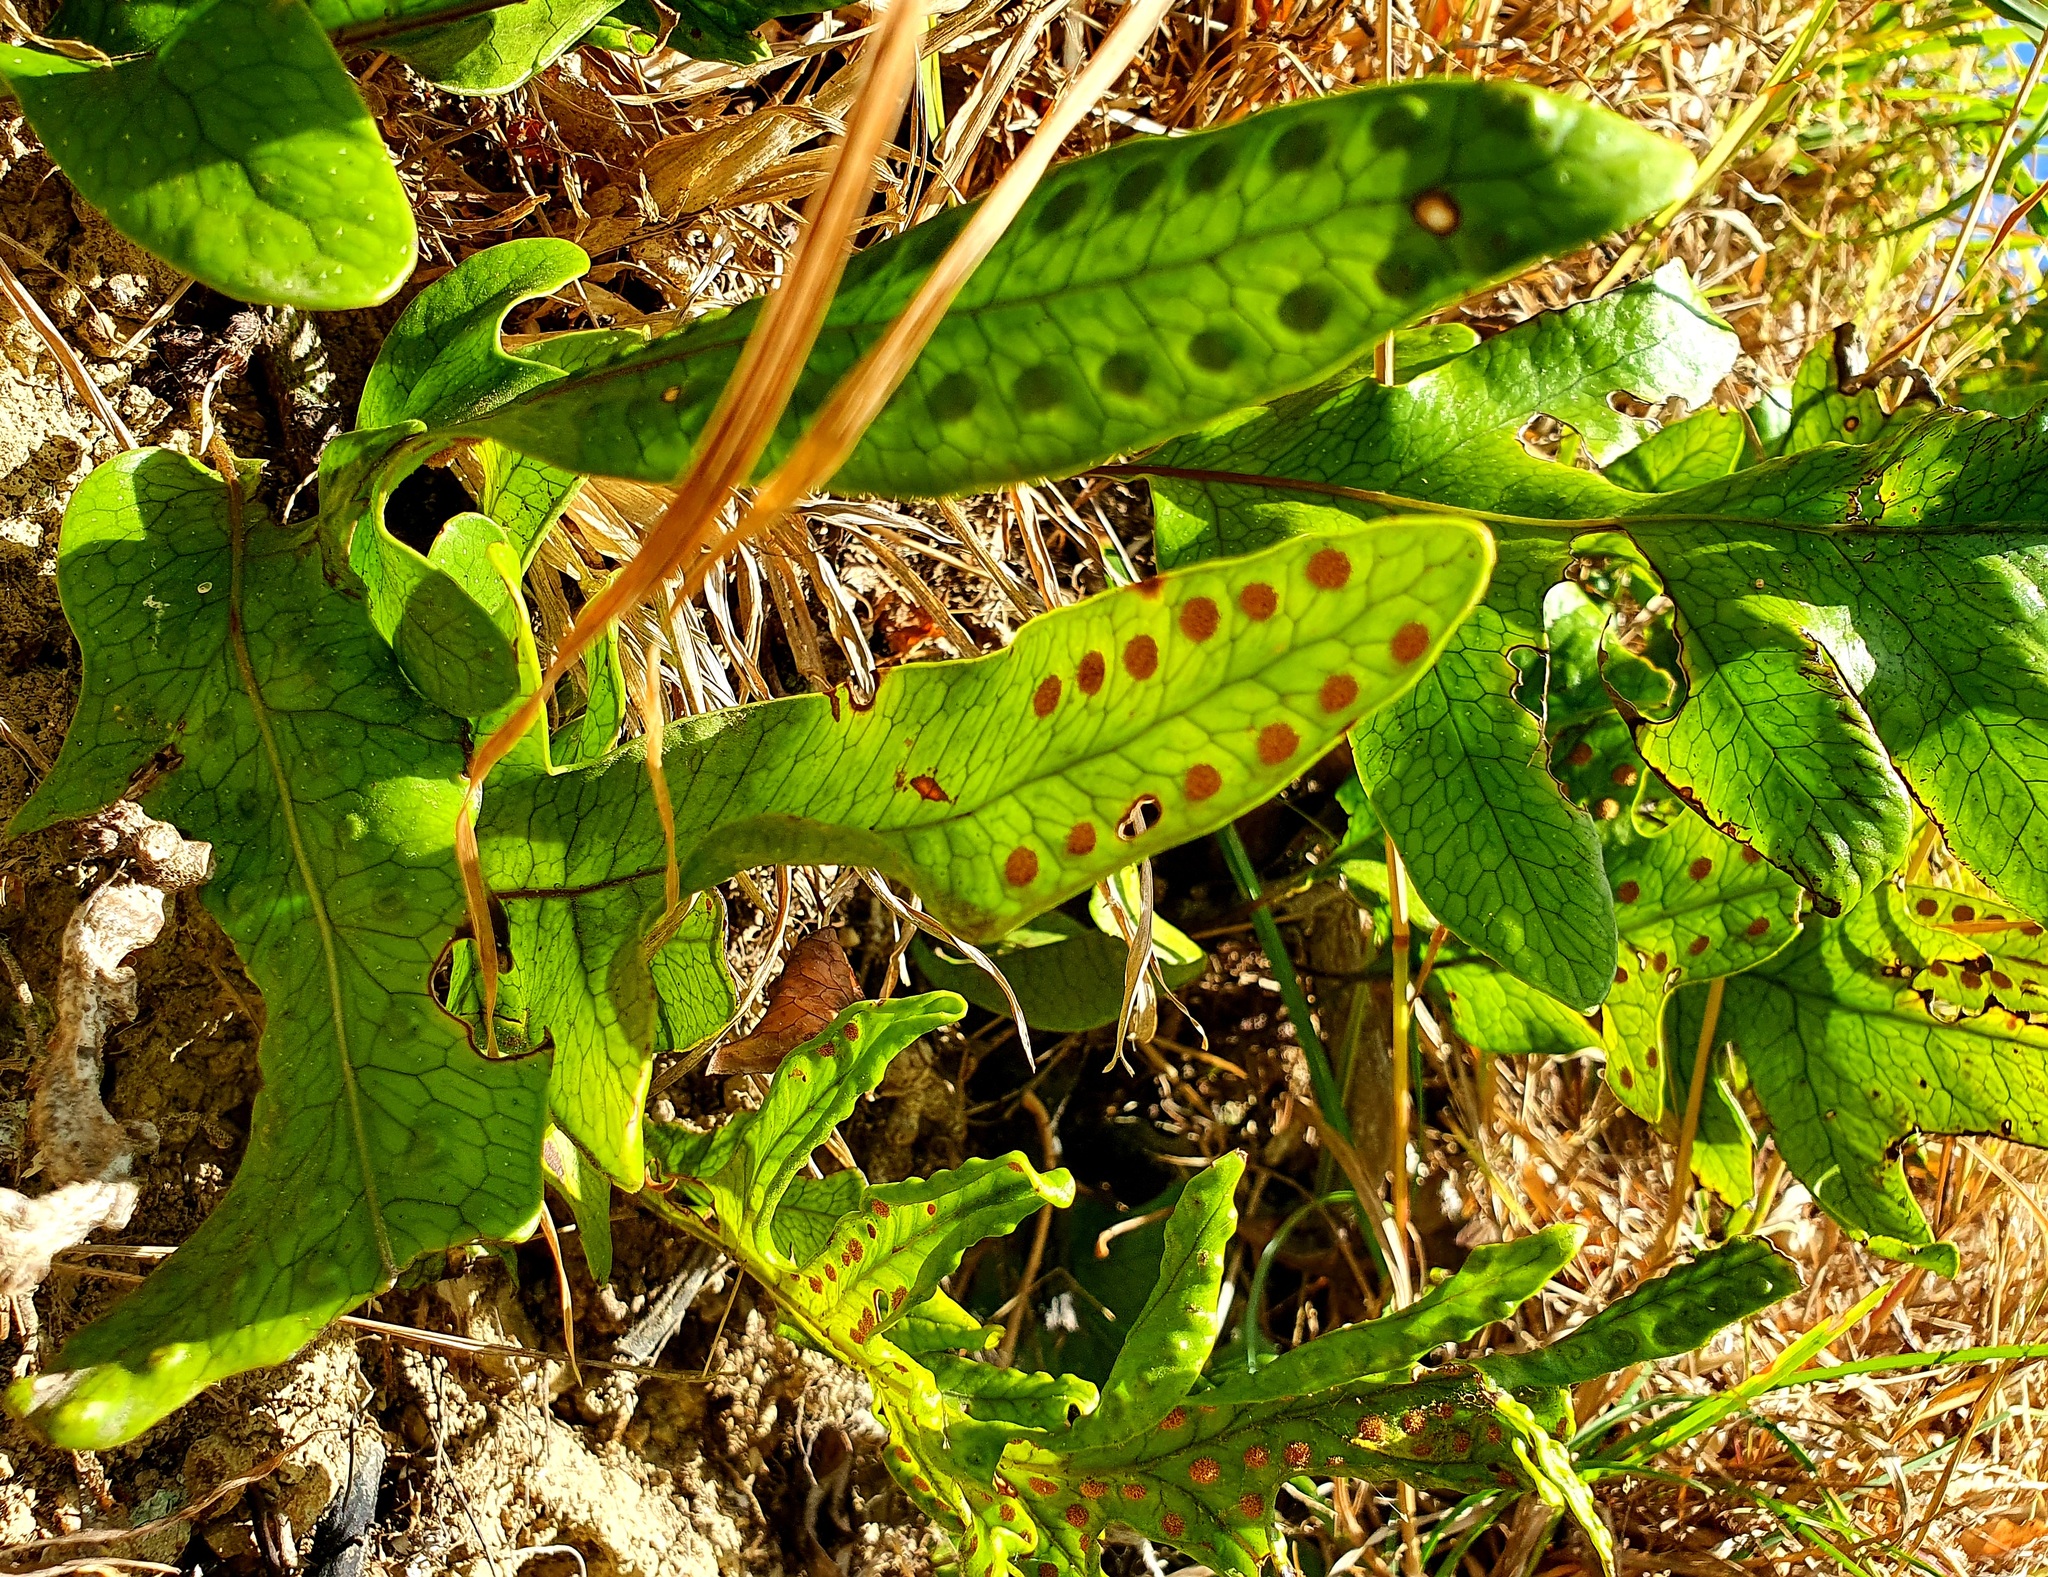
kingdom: Plantae
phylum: Tracheophyta
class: Polypodiopsida
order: Polypodiales
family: Polypodiaceae
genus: Lecanopteris
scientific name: Lecanopteris pustulata
